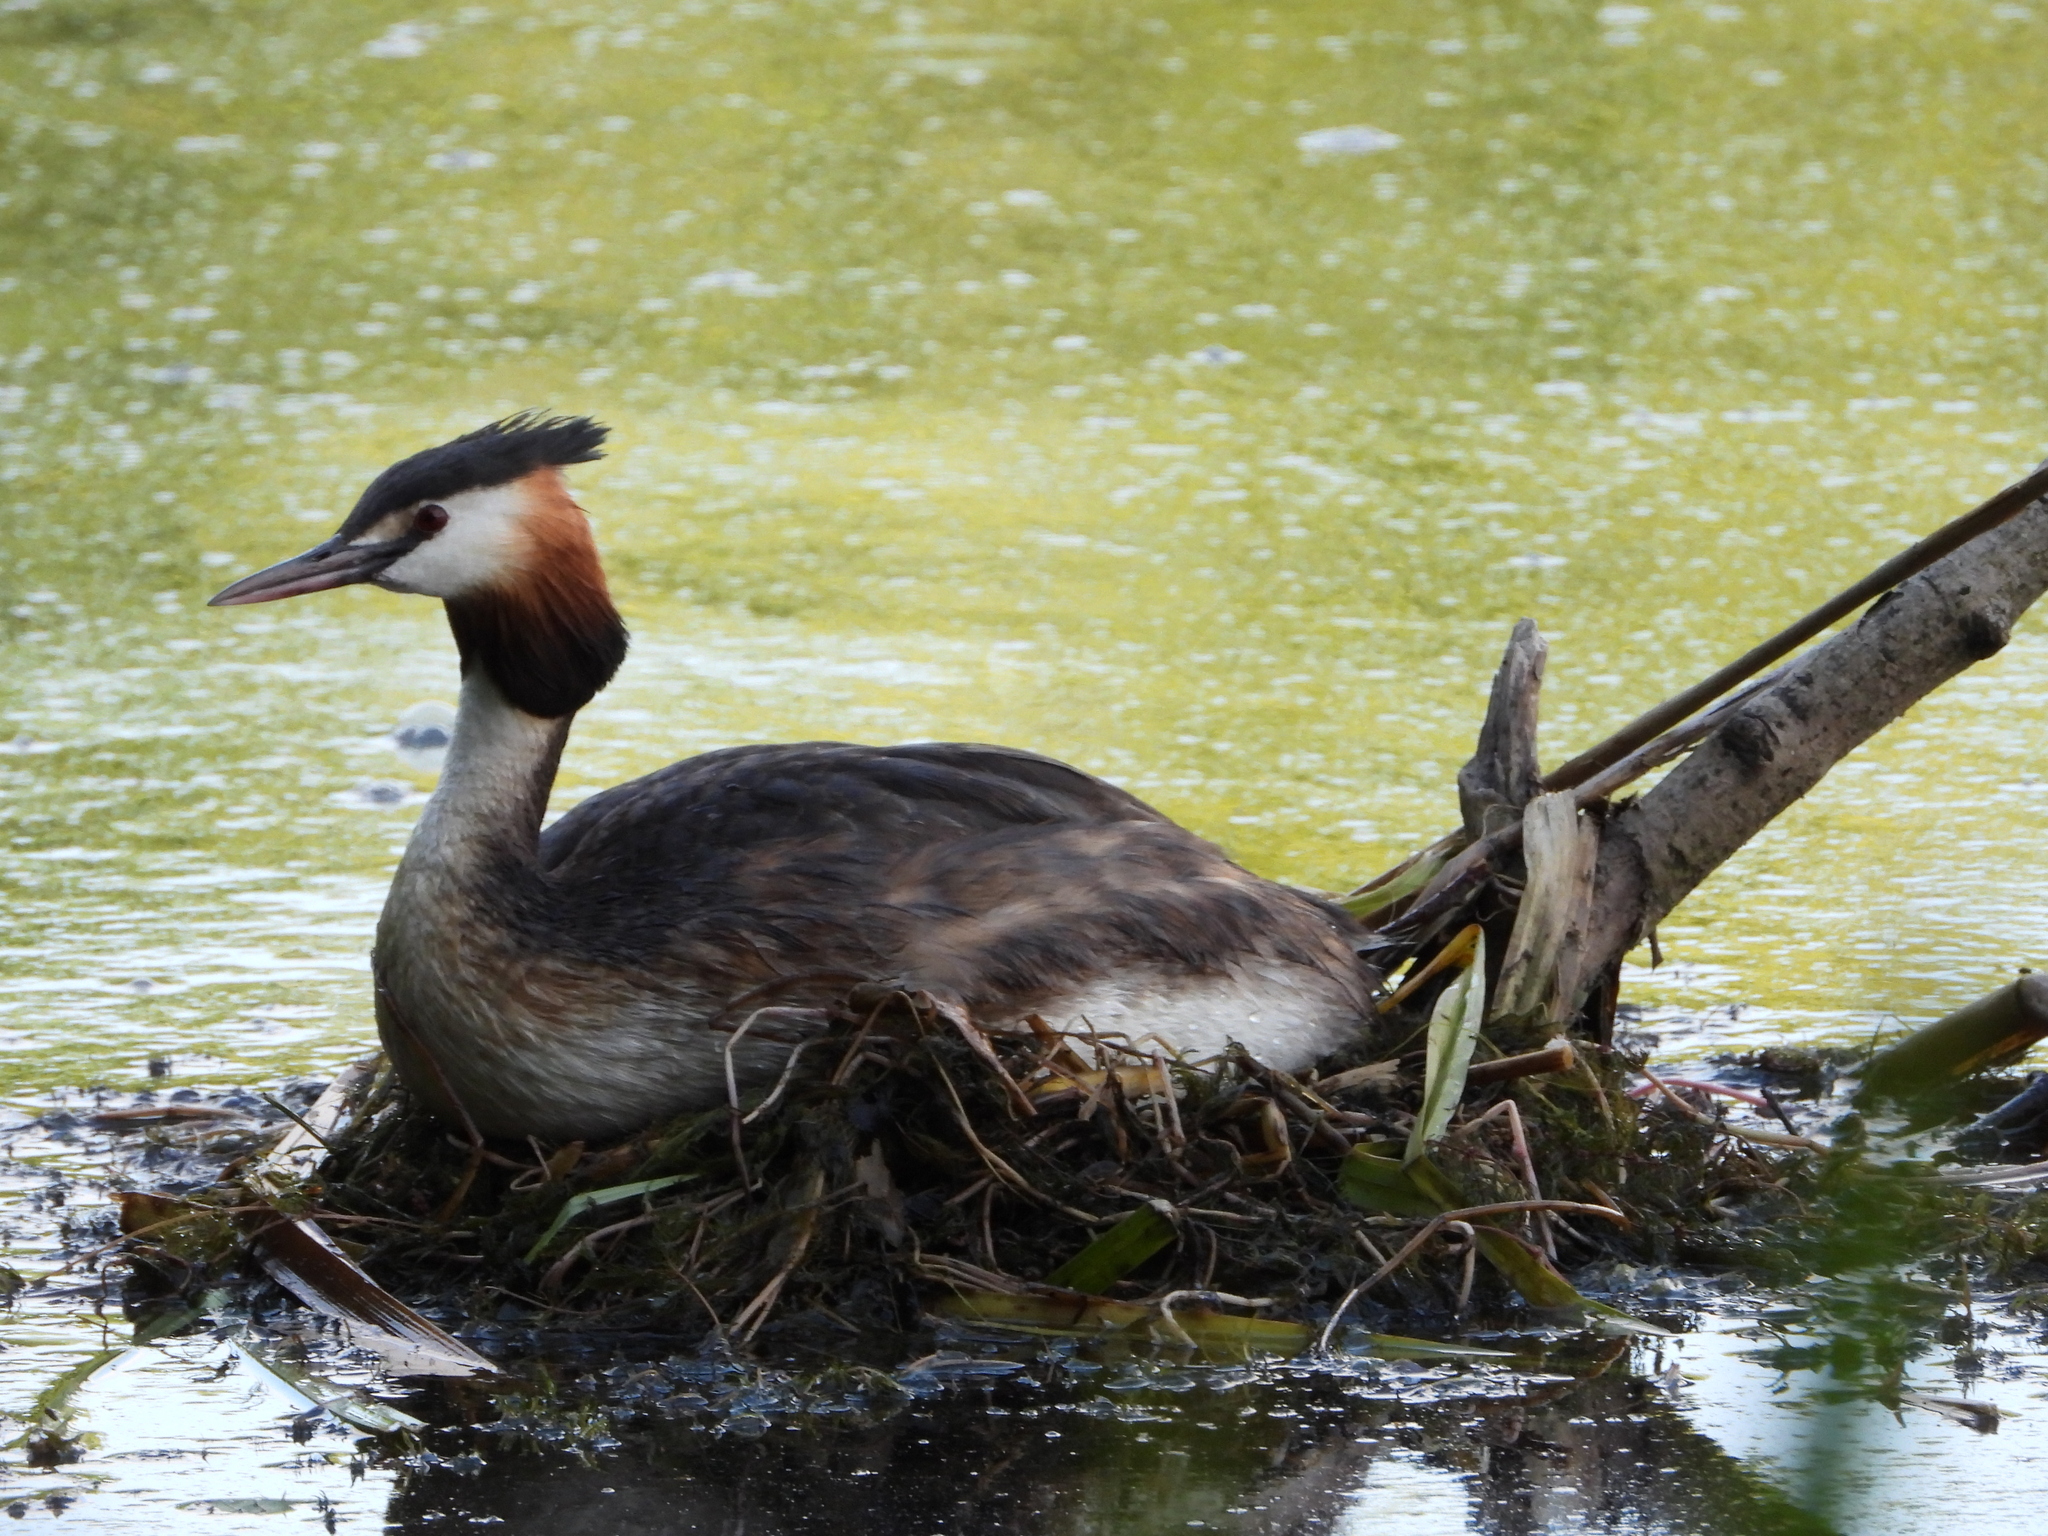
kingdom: Animalia
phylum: Chordata
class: Aves
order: Podicipediformes
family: Podicipedidae
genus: Podiceps
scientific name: Podiceps cristatus
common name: Great crested grebe
